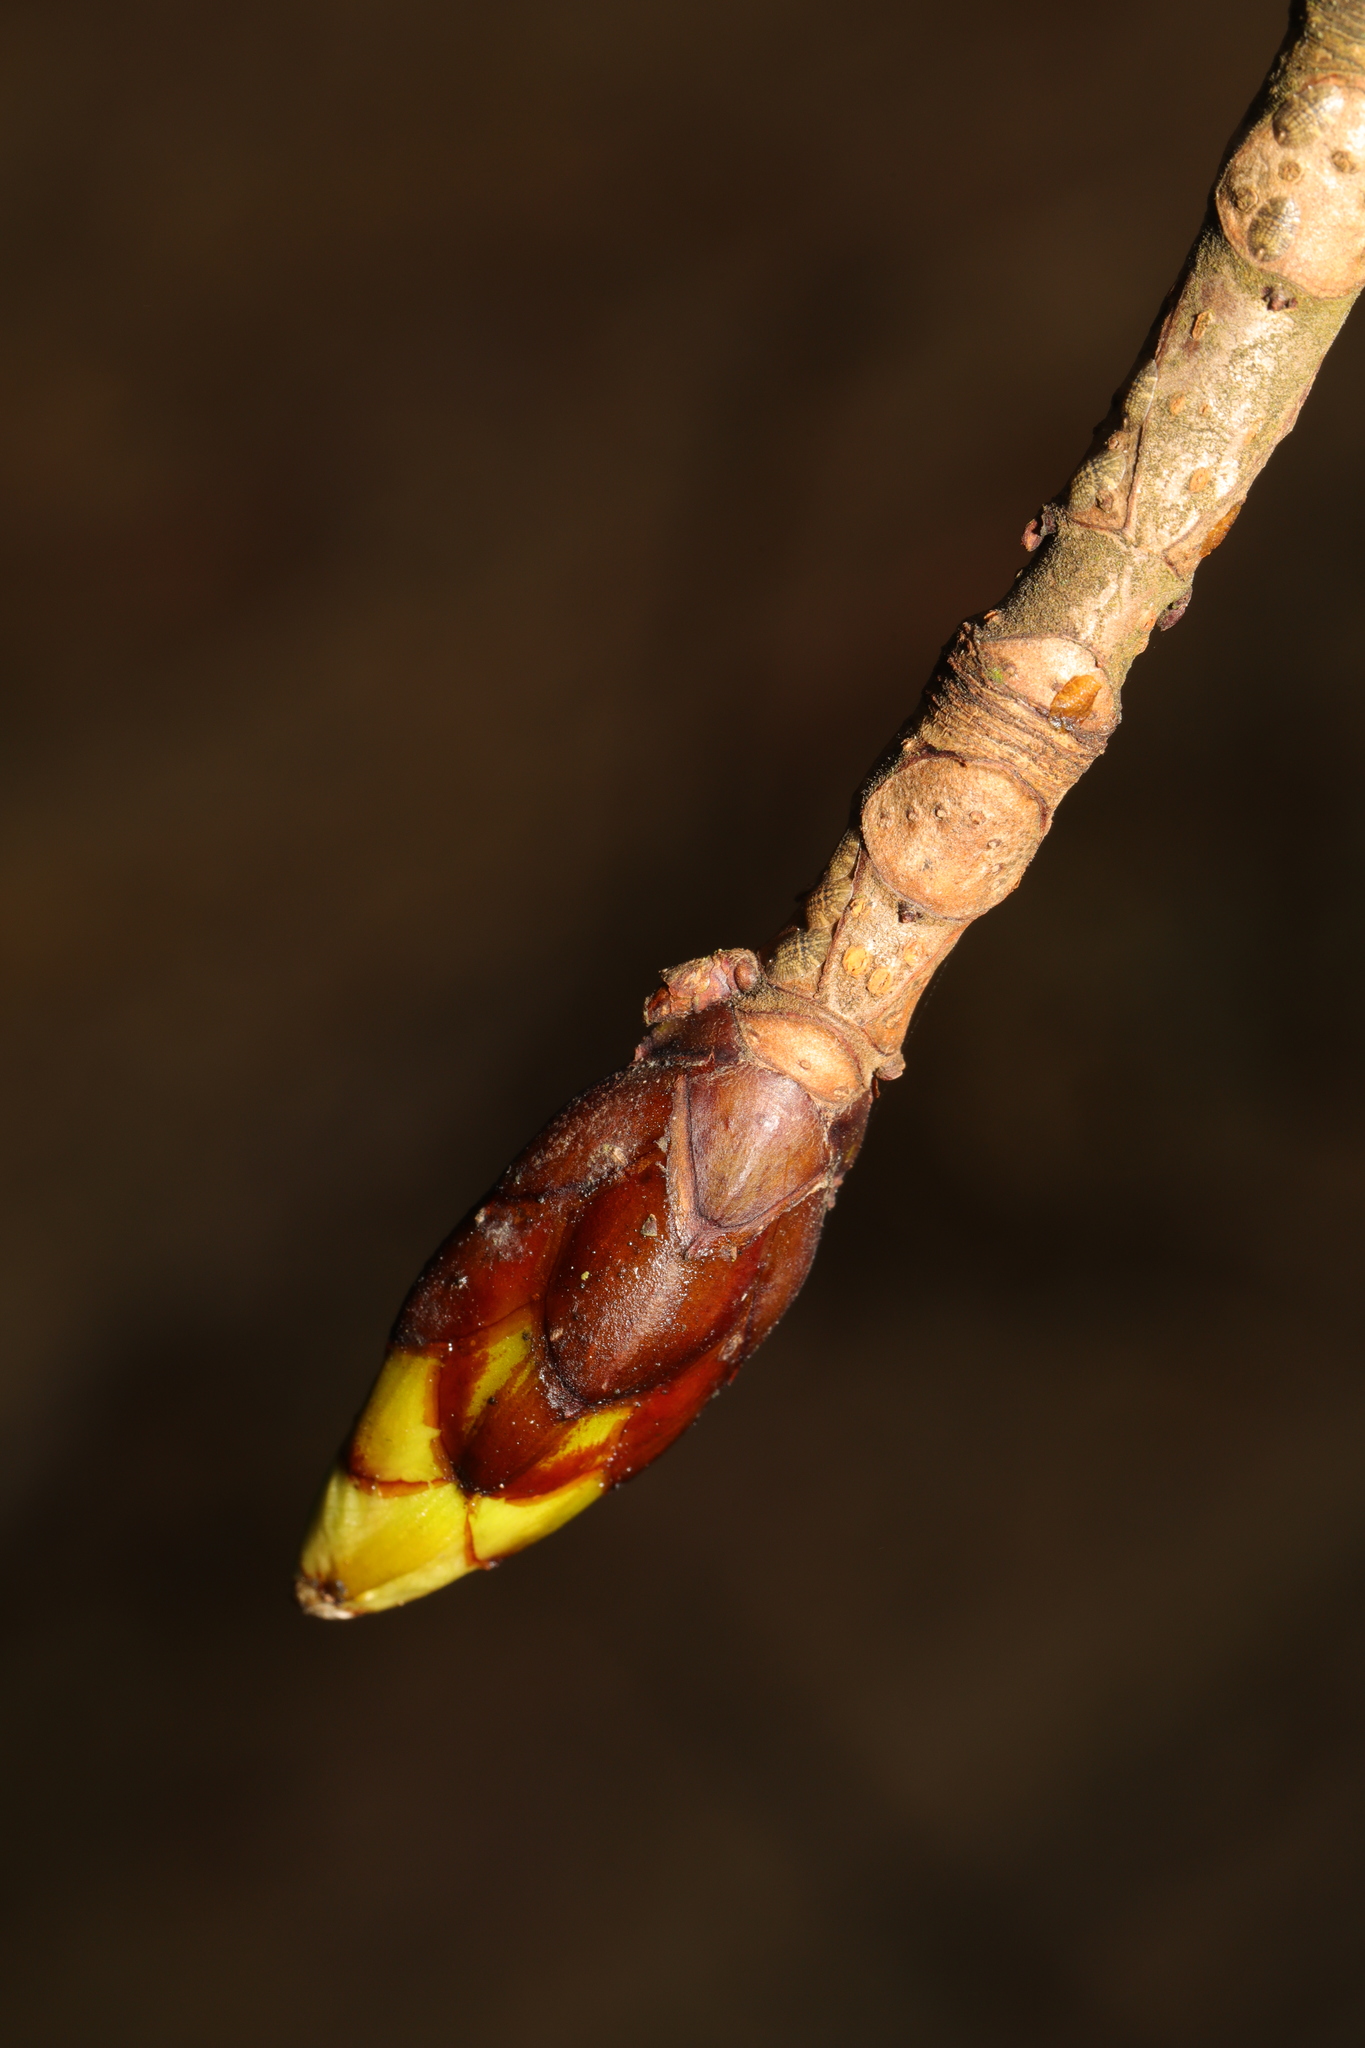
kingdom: Plantae
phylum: Tracheophyta
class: Magnoliopsida
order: Sapindales
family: Sapindaceae
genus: Aesculus
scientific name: Aesculus hippocastanum
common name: Horse-chestnut
